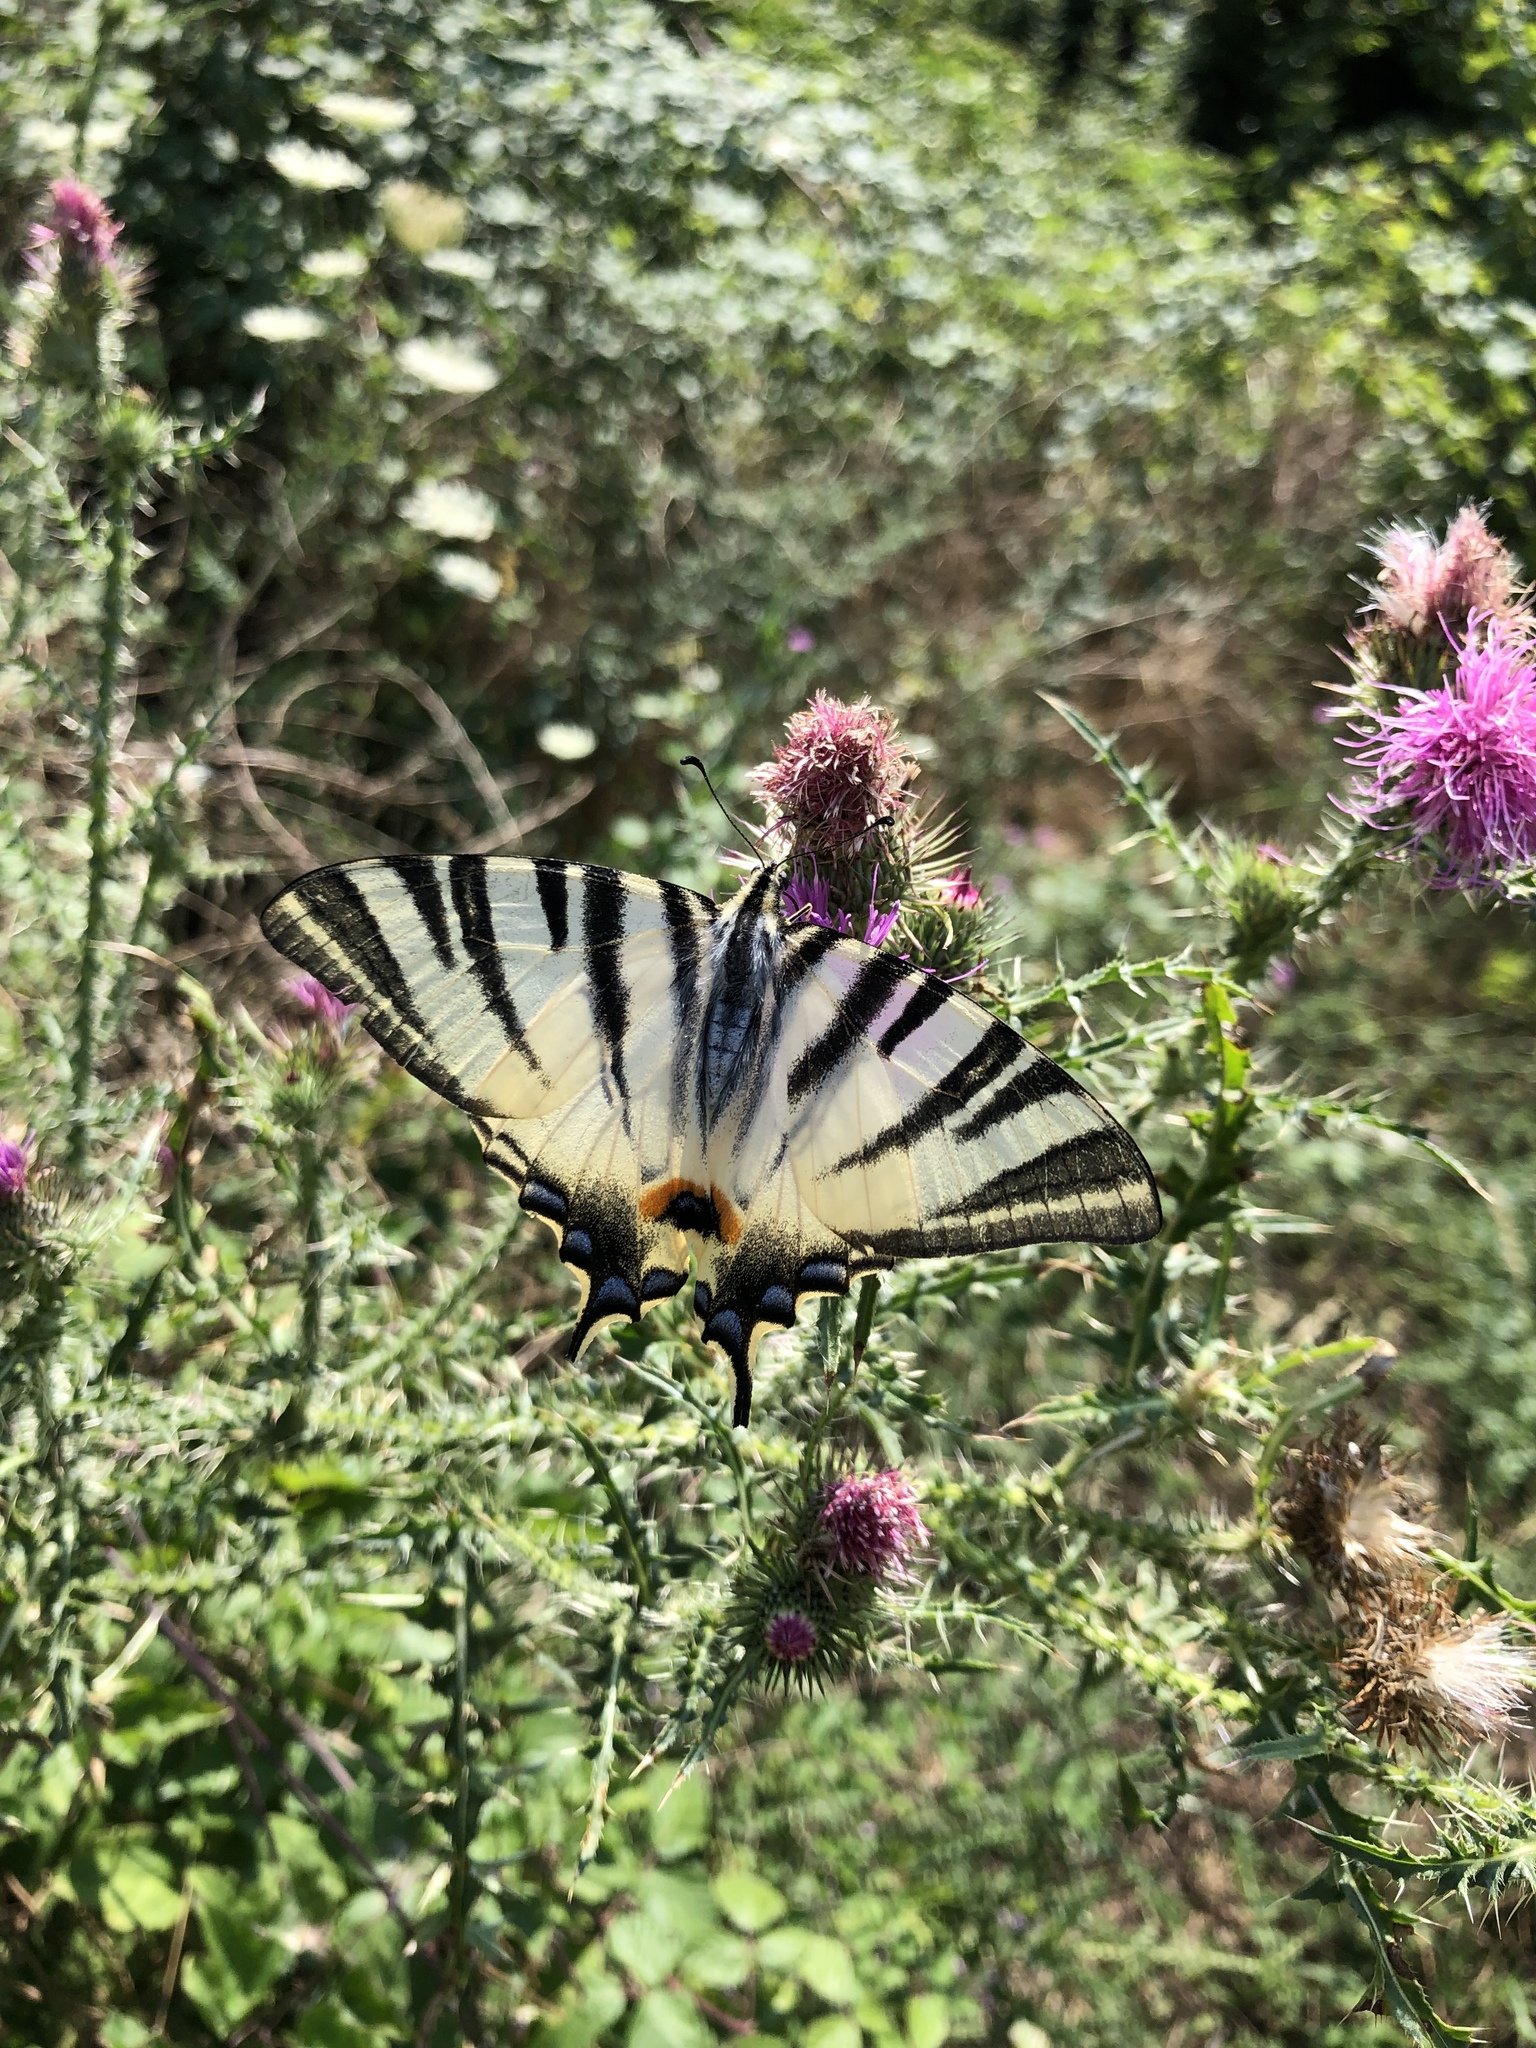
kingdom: Animalia
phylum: Arthropoda
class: Insecta
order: Lepidoptera
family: Papilionidae
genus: Iphiclides
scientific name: Iphiclides podalirius
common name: Scarce swallowtail
